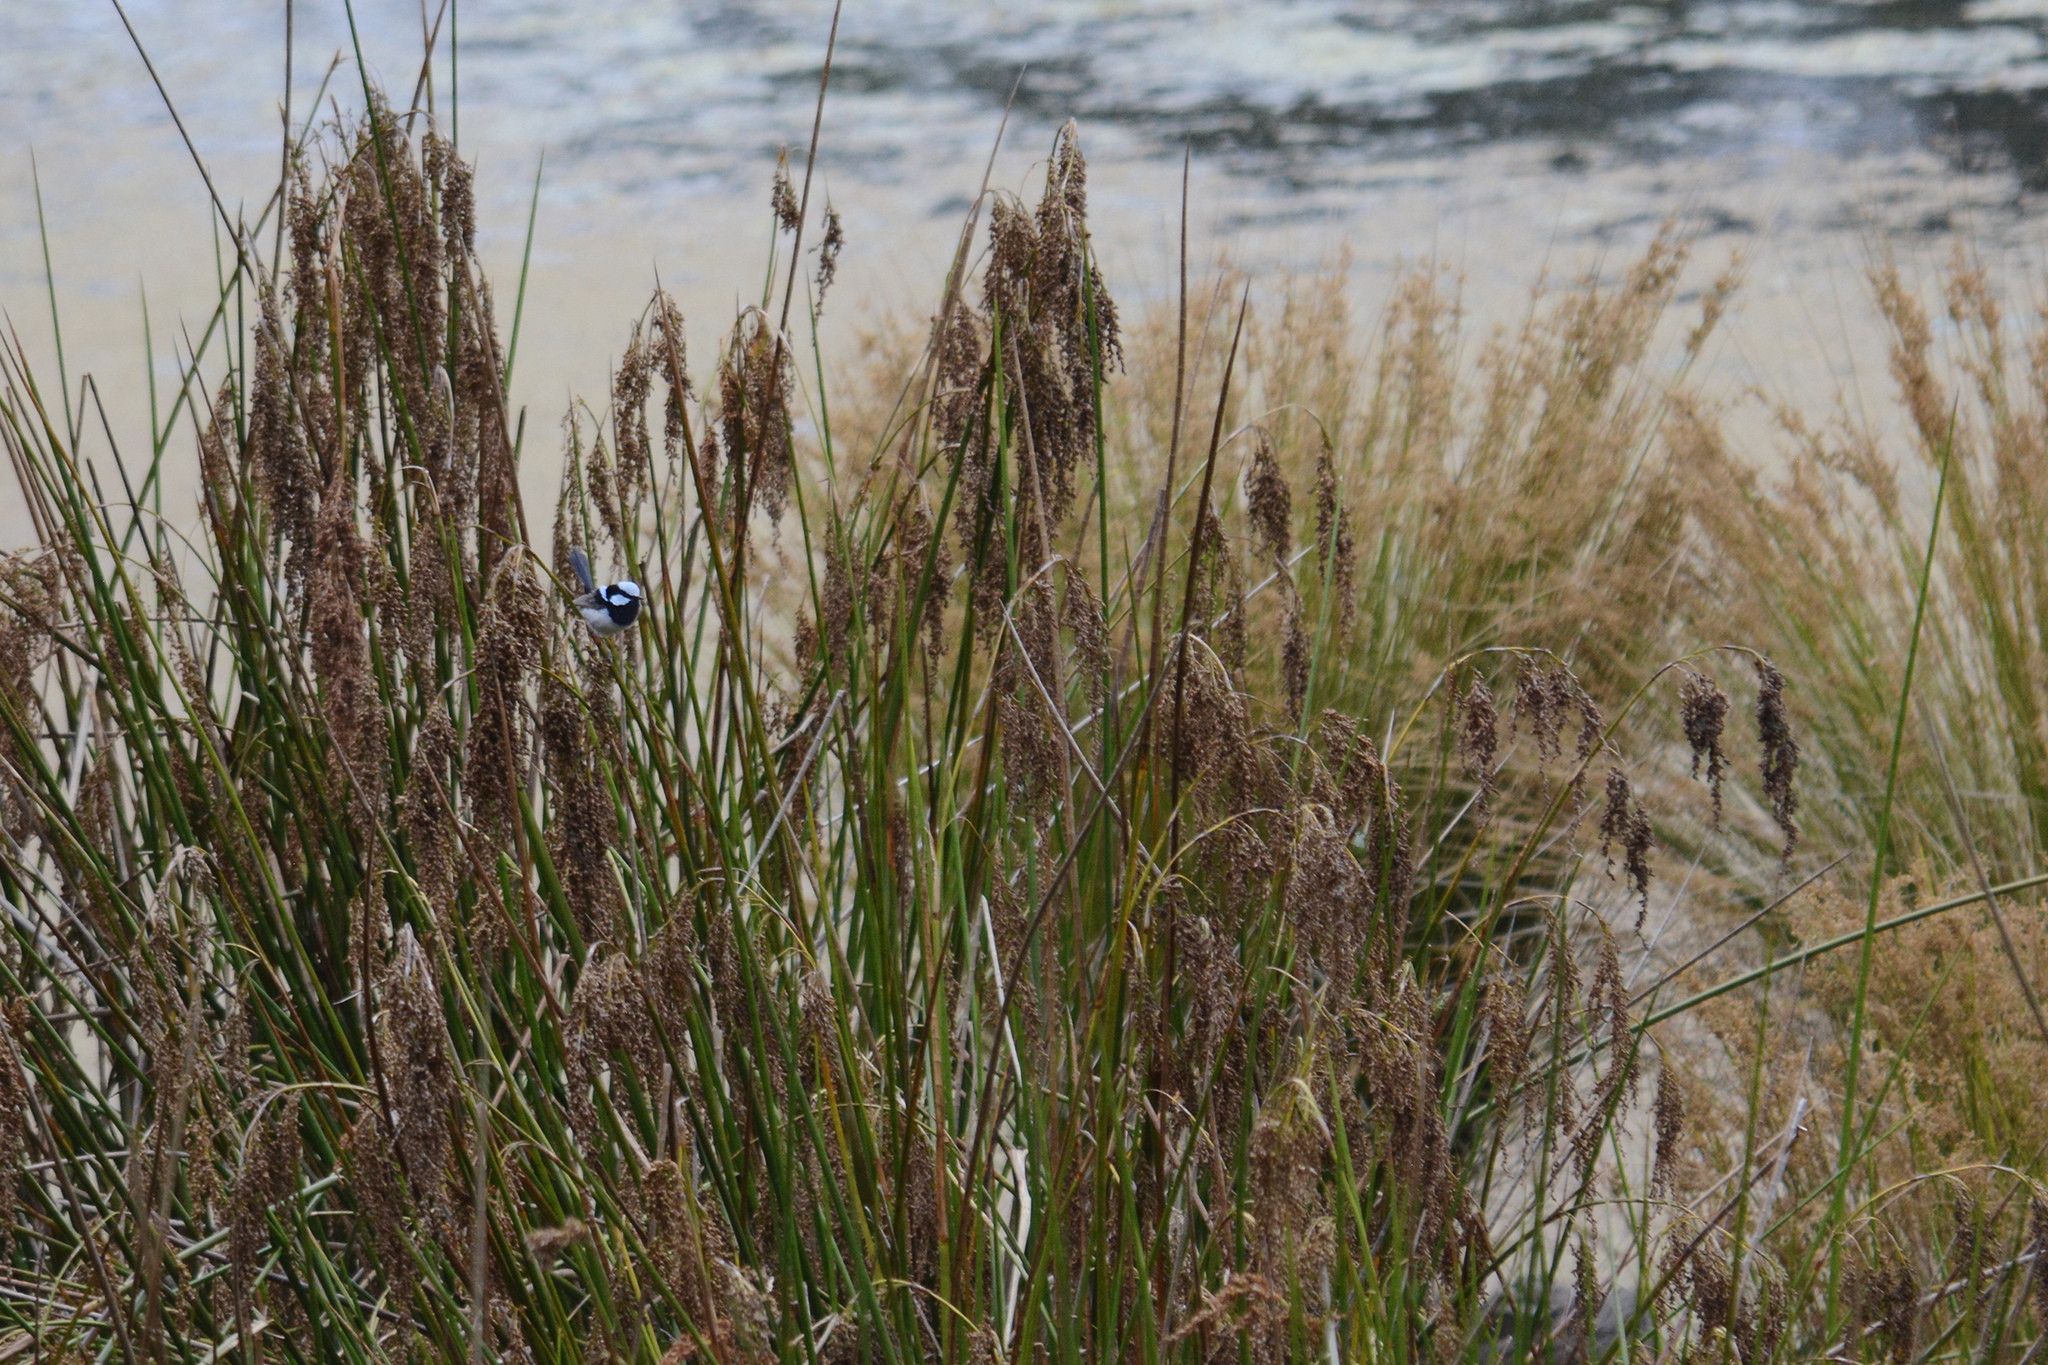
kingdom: Animalia
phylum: Chordata
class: Aves
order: Passeriformes
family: Maluridae
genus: Malurus
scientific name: Malurus cyaneus
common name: Superb fairywren
